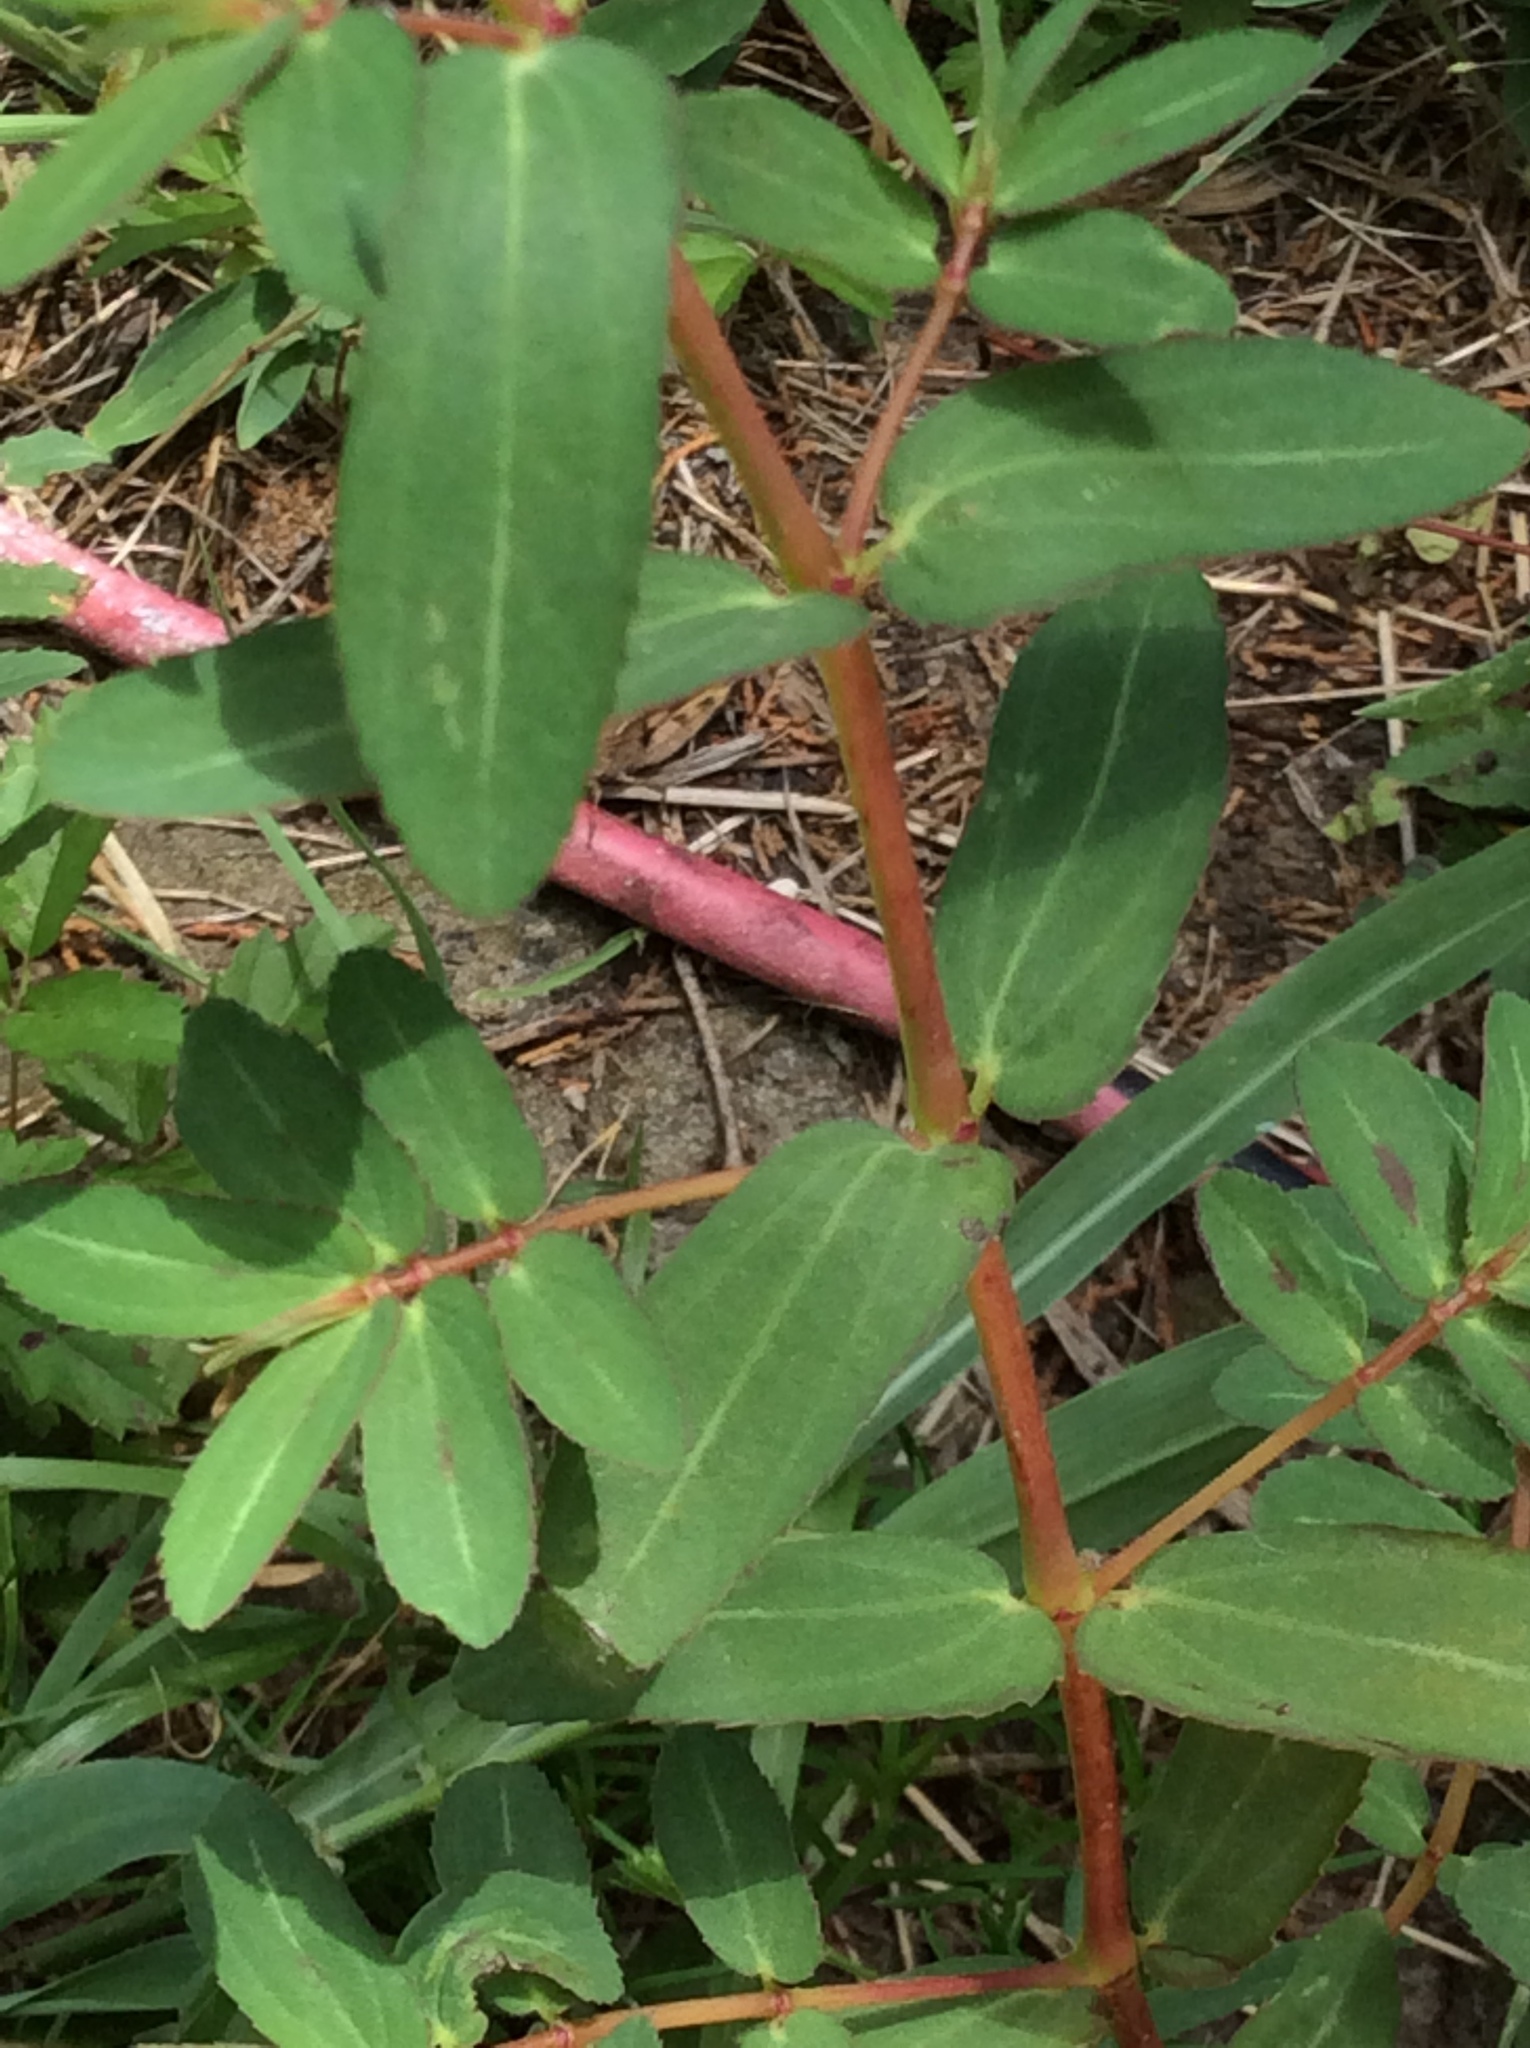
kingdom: Plantae
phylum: Tracheophyta
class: Magnoliopsida
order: Malpighiales
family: Euphorbiaceae
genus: Euphorbia
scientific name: Euphorbia nutans
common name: Eyebane
